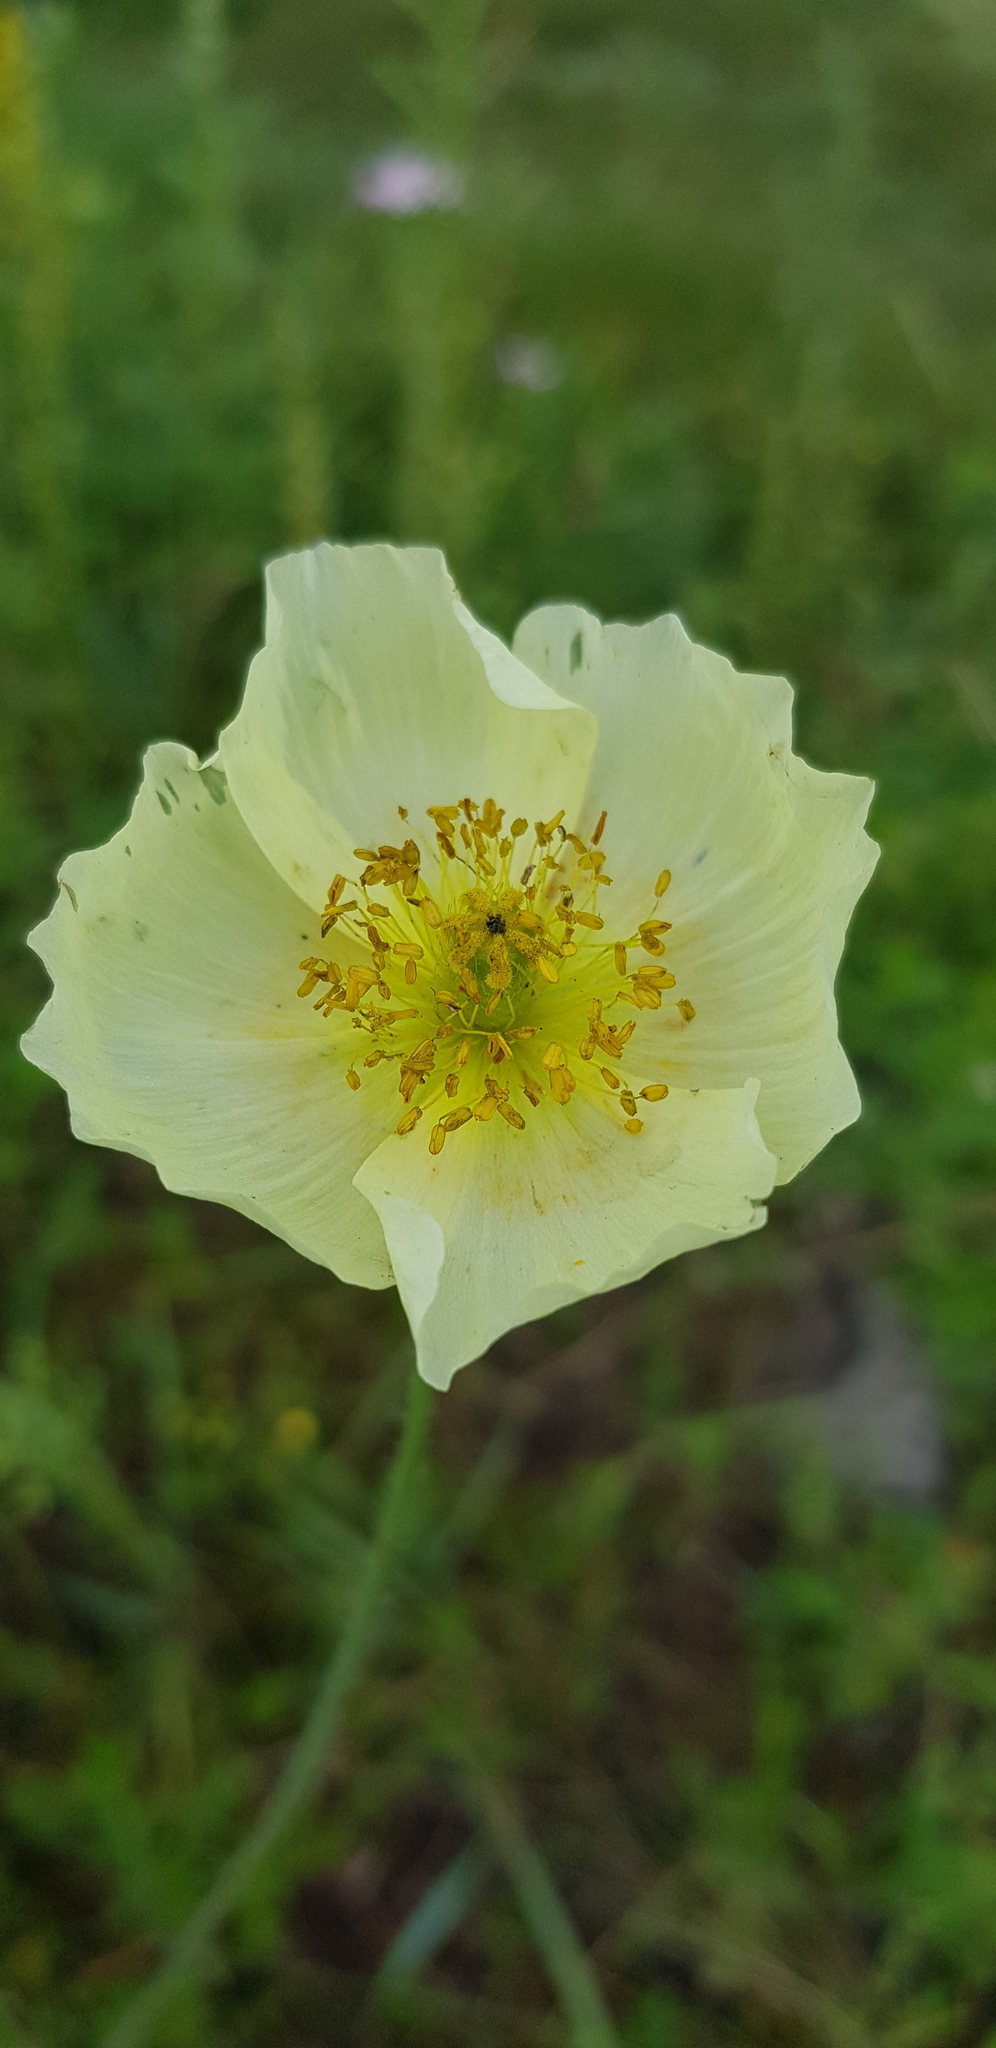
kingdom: Plantae
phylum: Tracheophyta
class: Magnoliopsida
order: Ranunculales
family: Papaveraceae
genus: Papaver
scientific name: Papaver nudicaule
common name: Arctic poppy
